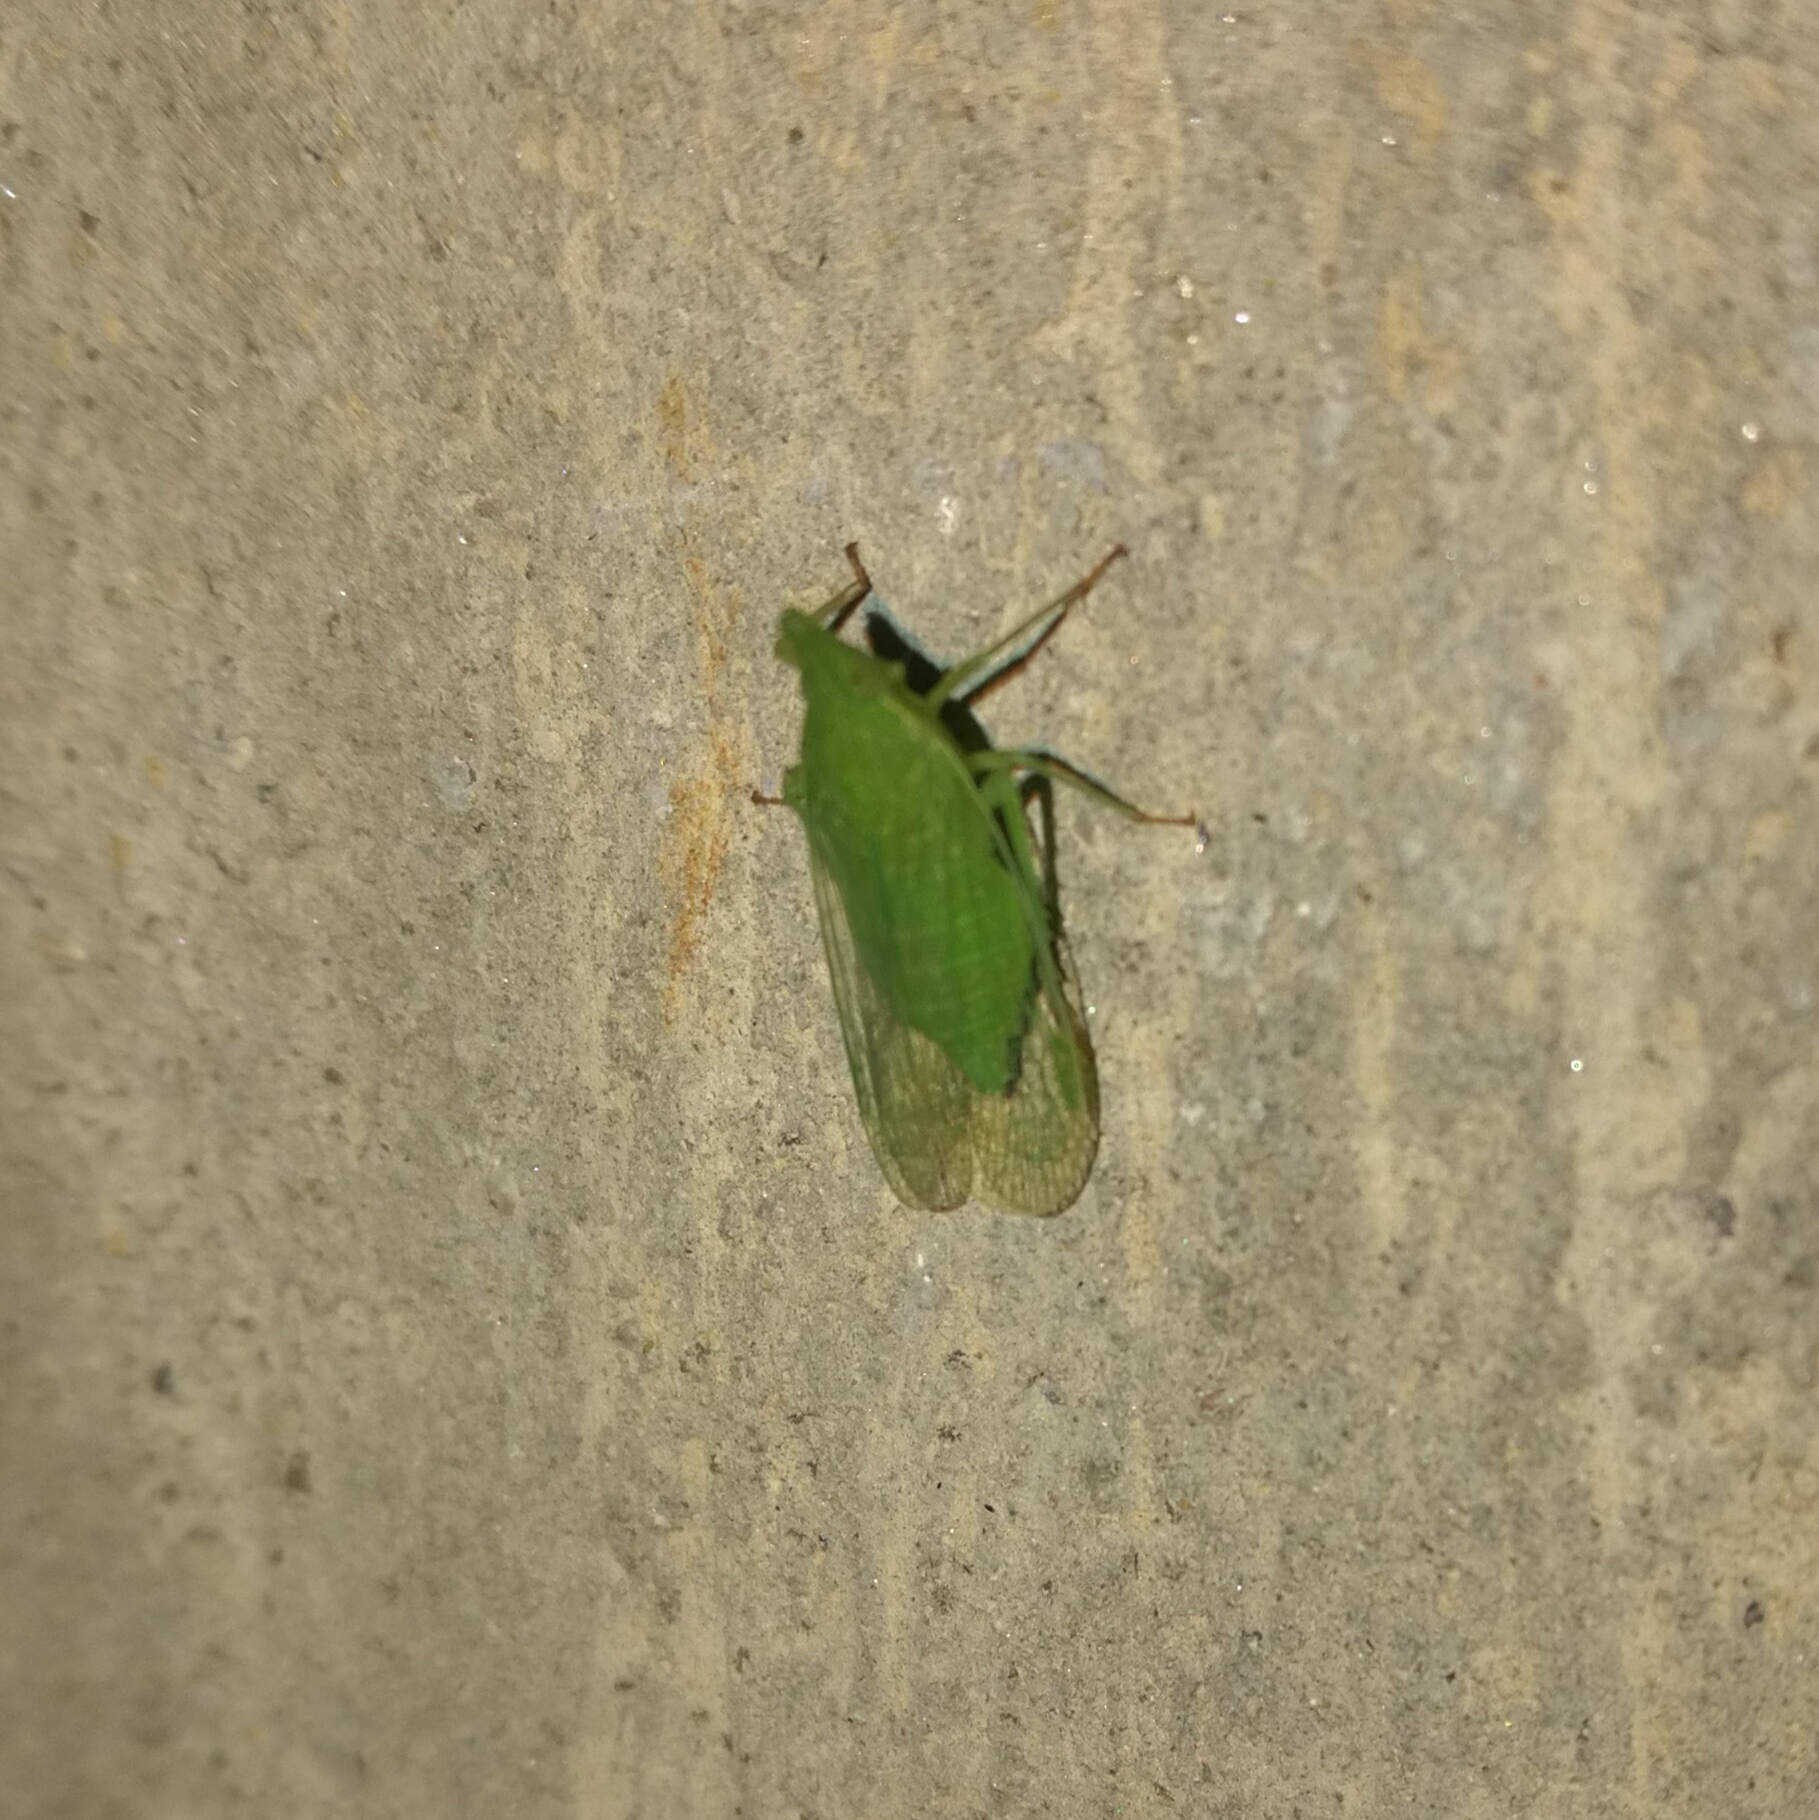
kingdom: Animalia
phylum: Arthropoda
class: Insecta
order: Hemiptera
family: Dictyopharidae
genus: Dictyophara
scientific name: Dictyophara europaea
